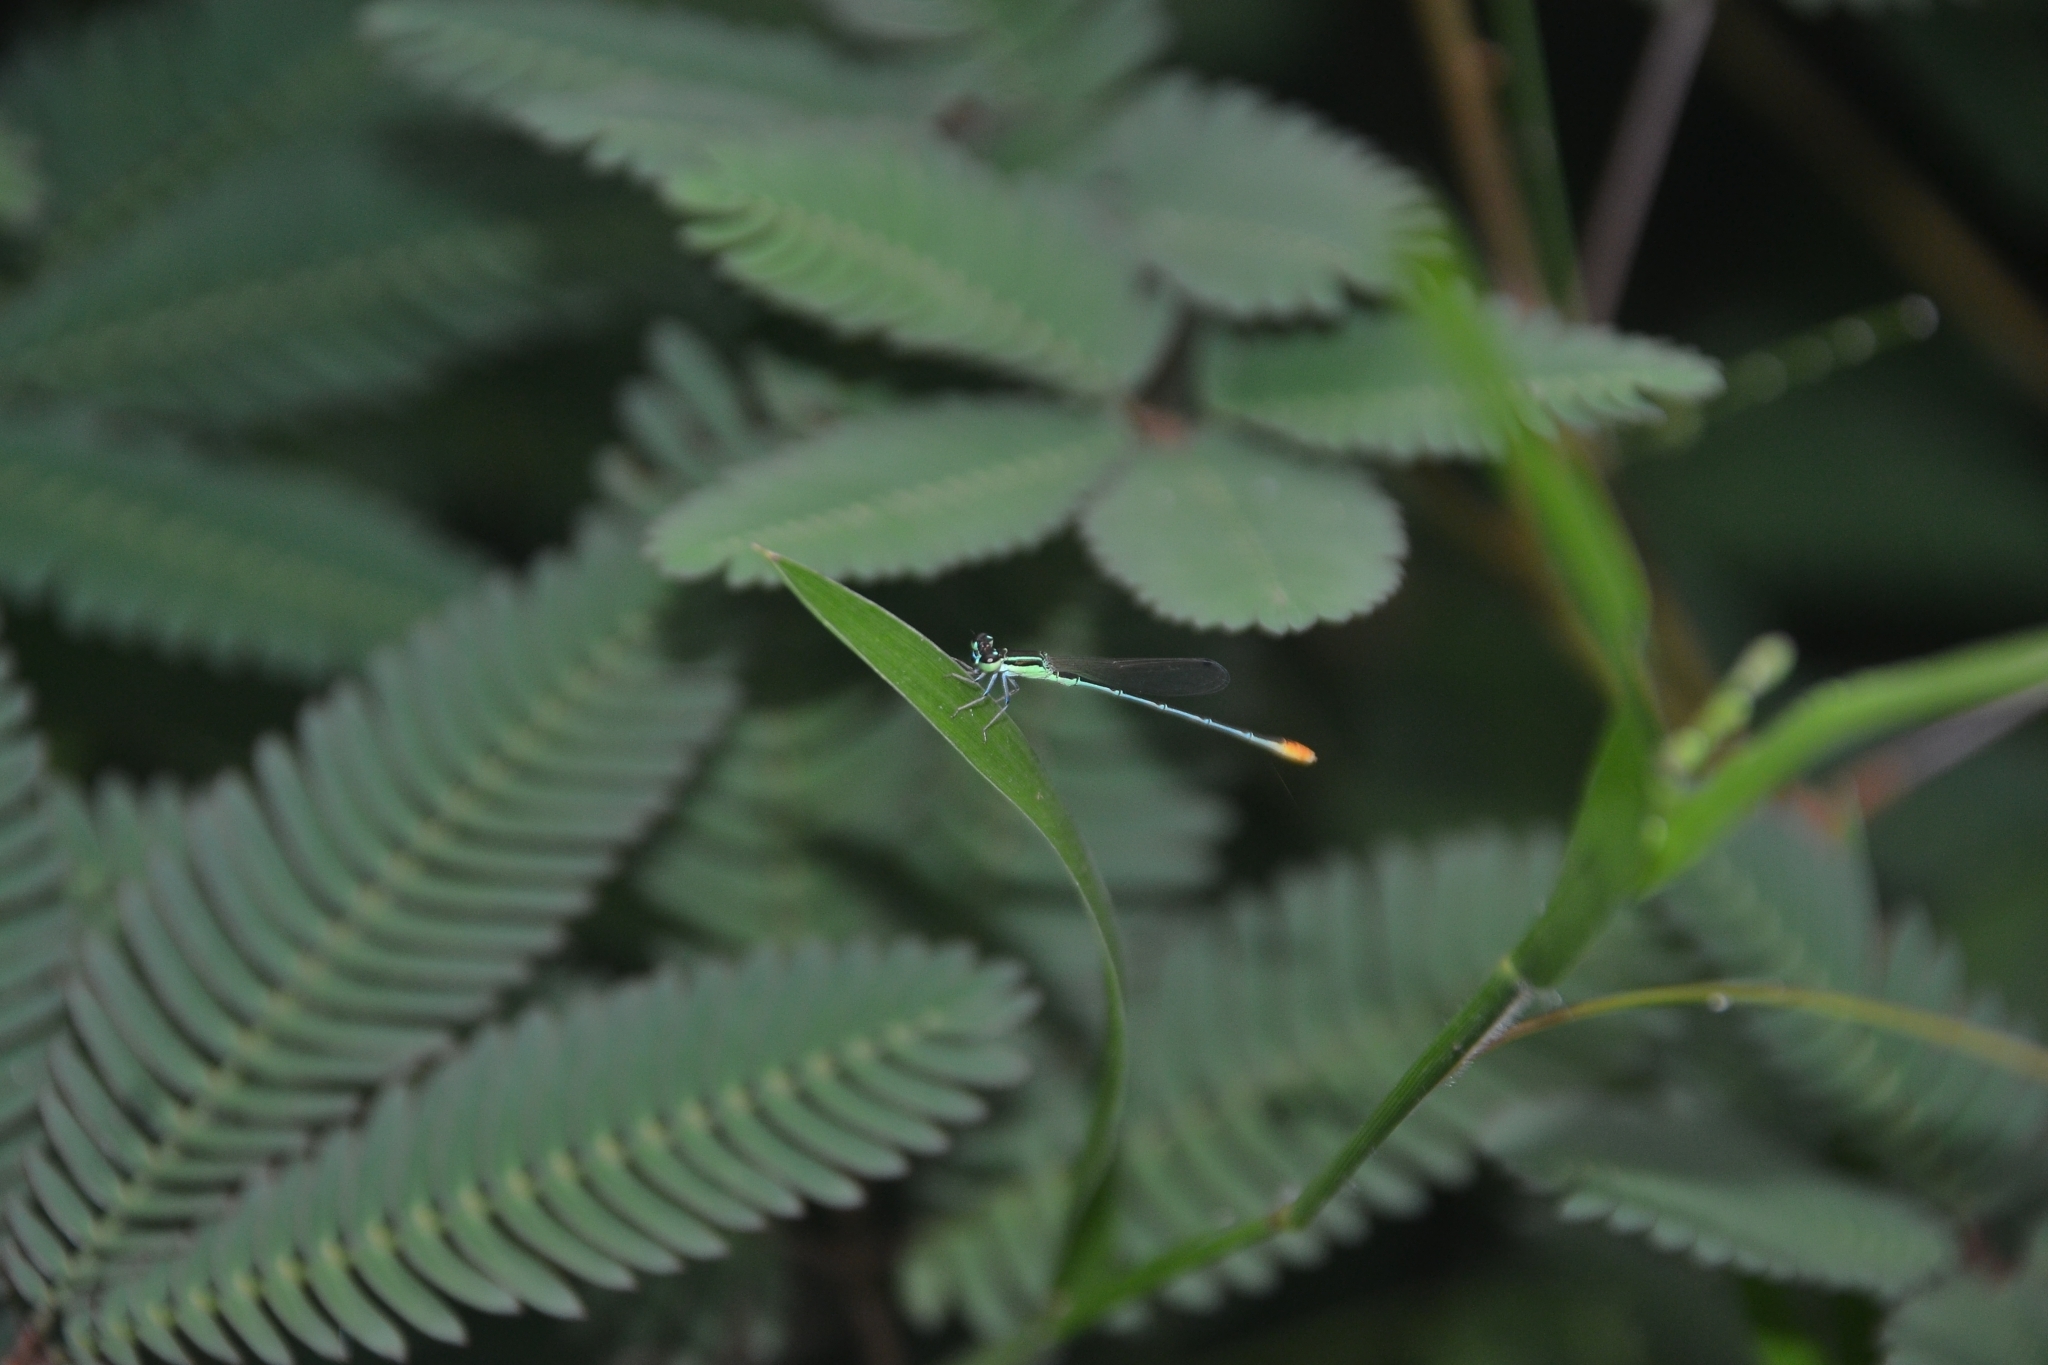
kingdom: Animalia
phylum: Arthropoda
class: Insecta
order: Odonata
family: Coenagrionidae
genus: Agriocnemis
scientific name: Agriocnemis pygmaea
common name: Pygmy wisp
